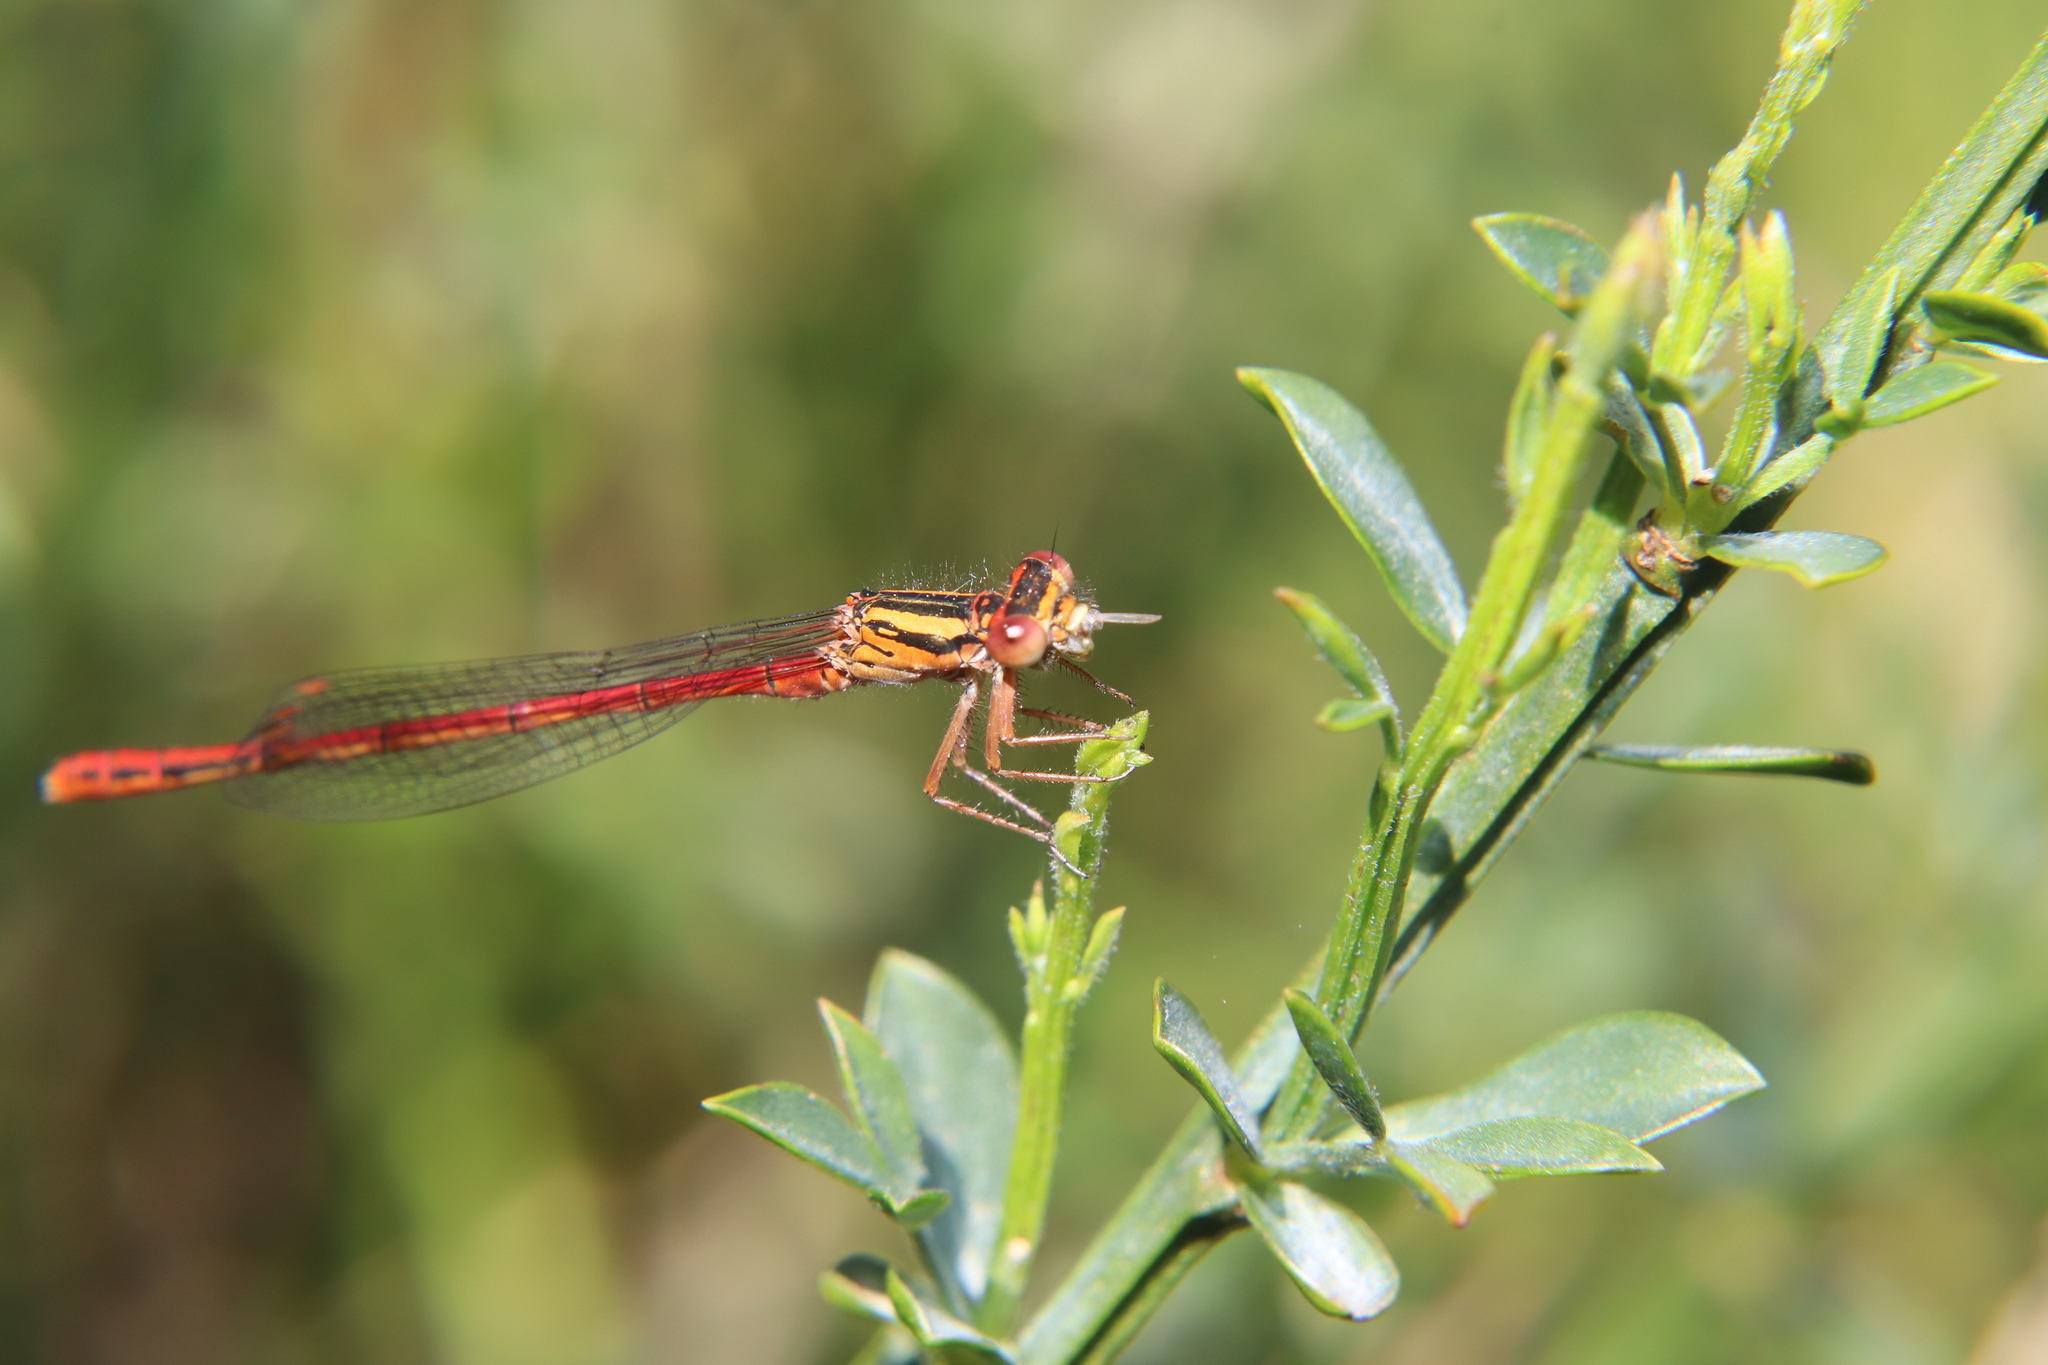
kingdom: Animalia
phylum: Arthropoda
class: Insecta
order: Odonata
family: Coenagrionidae
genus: Xanthocnemis
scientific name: Xanthocnemis zealandica
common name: Common redcoat damselfly
